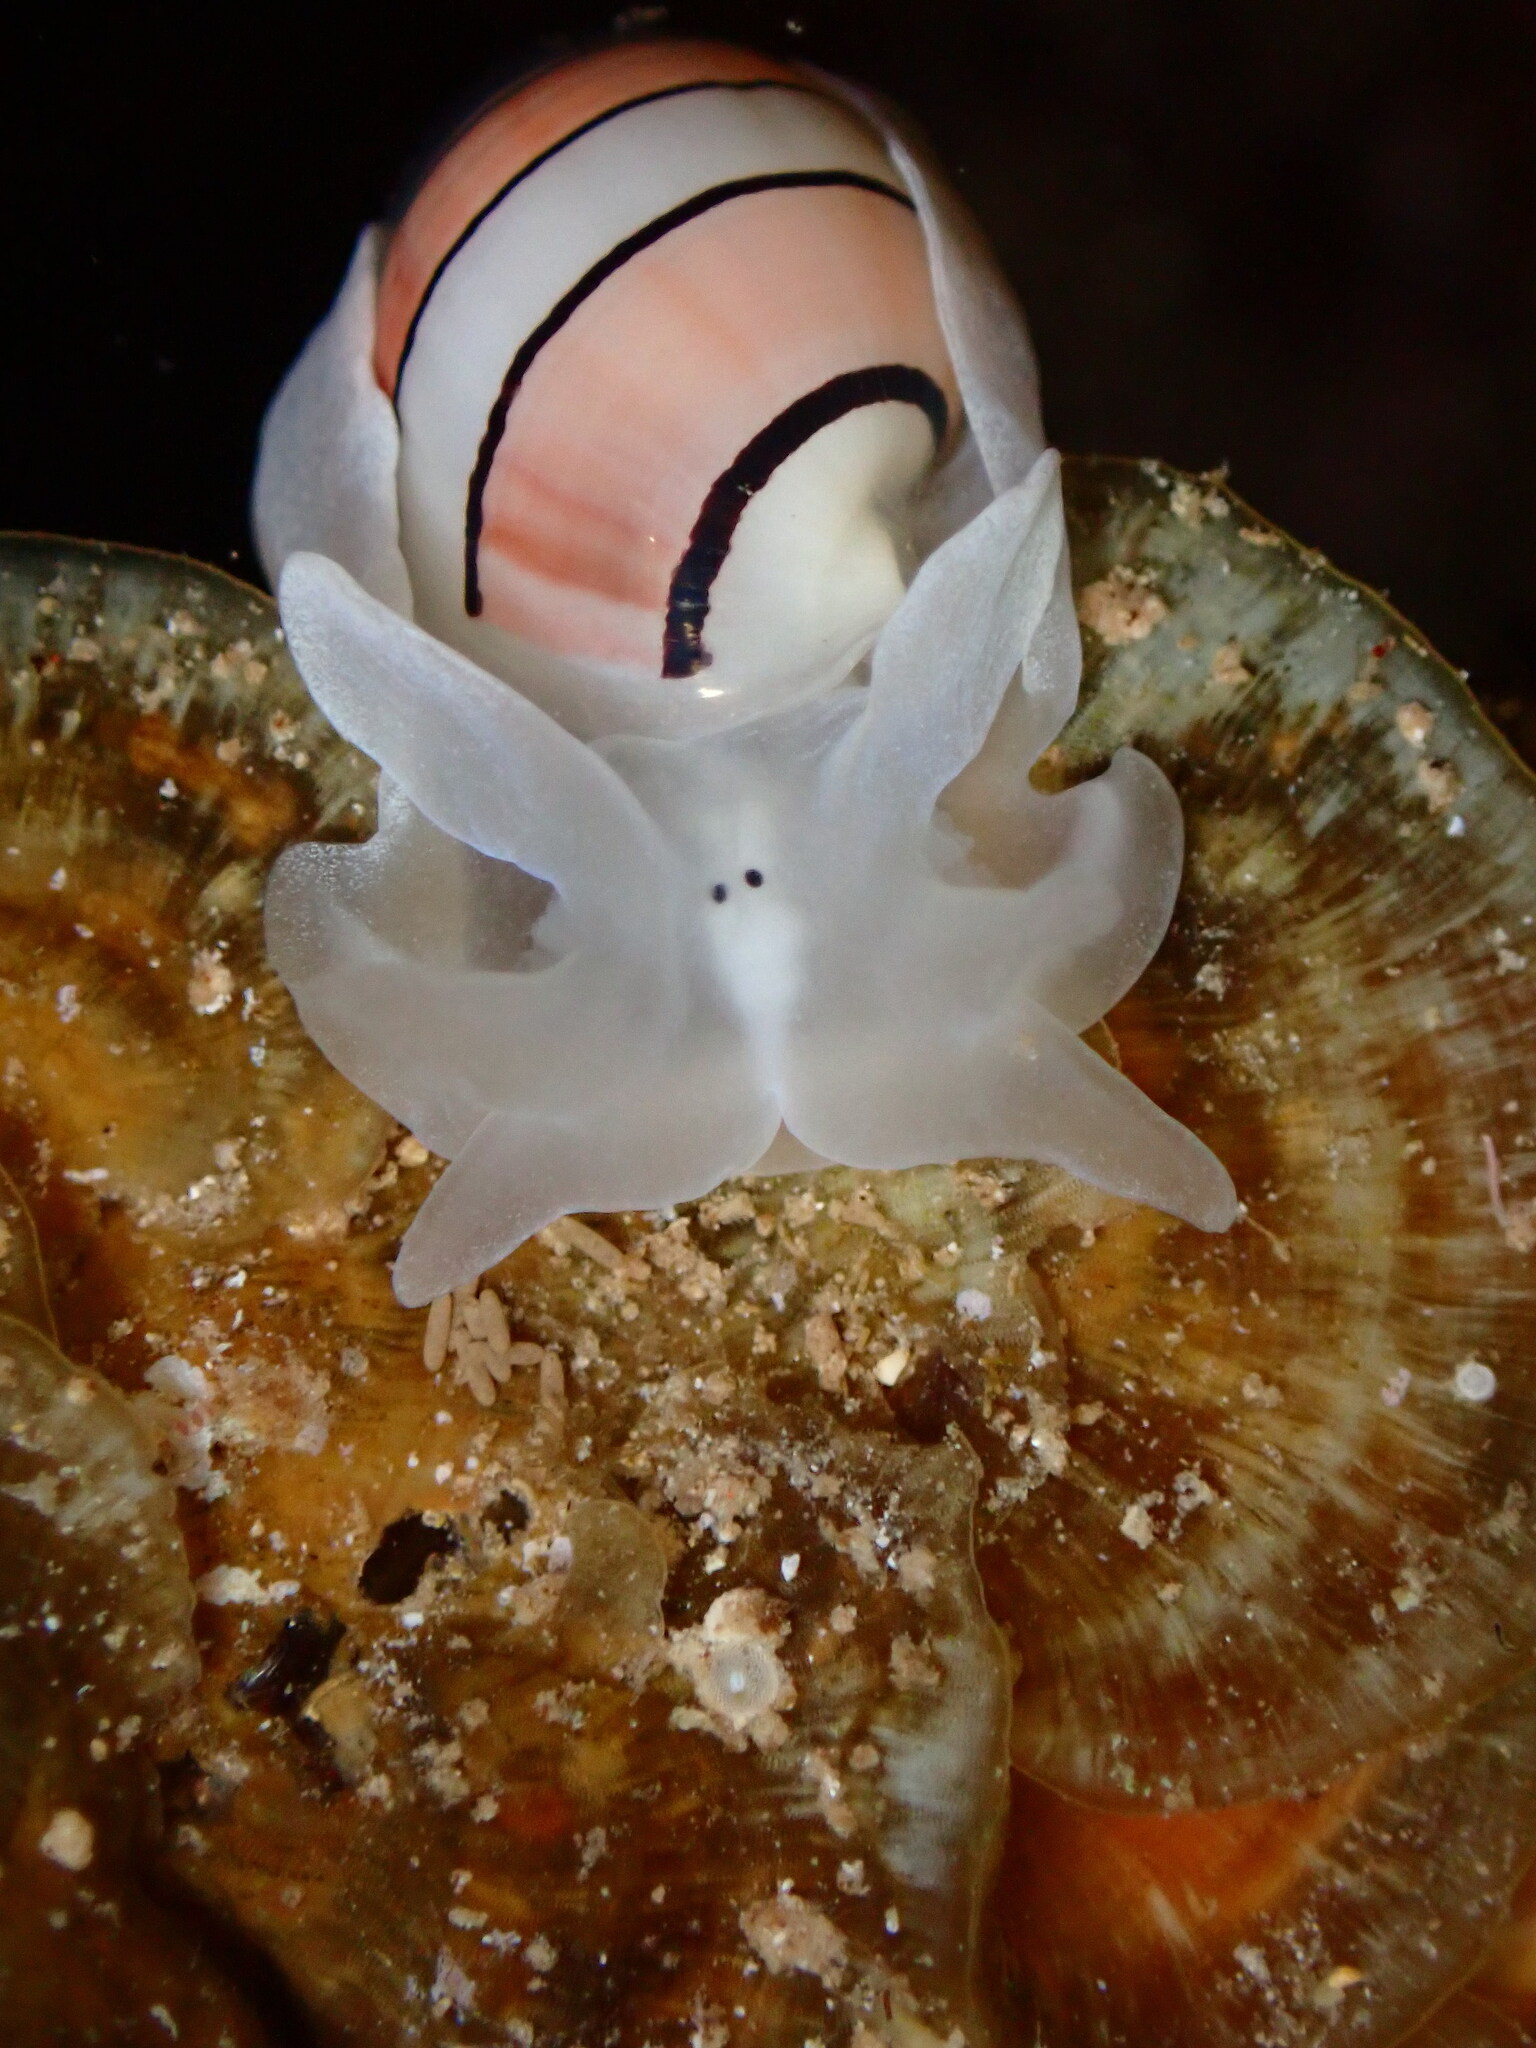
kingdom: Animalia
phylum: Mollusca
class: Gastropoda
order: Cephalaspidea
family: Aplustridae
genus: Aplustrum
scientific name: Aplustrum amplustre
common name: Royal paperbubble
